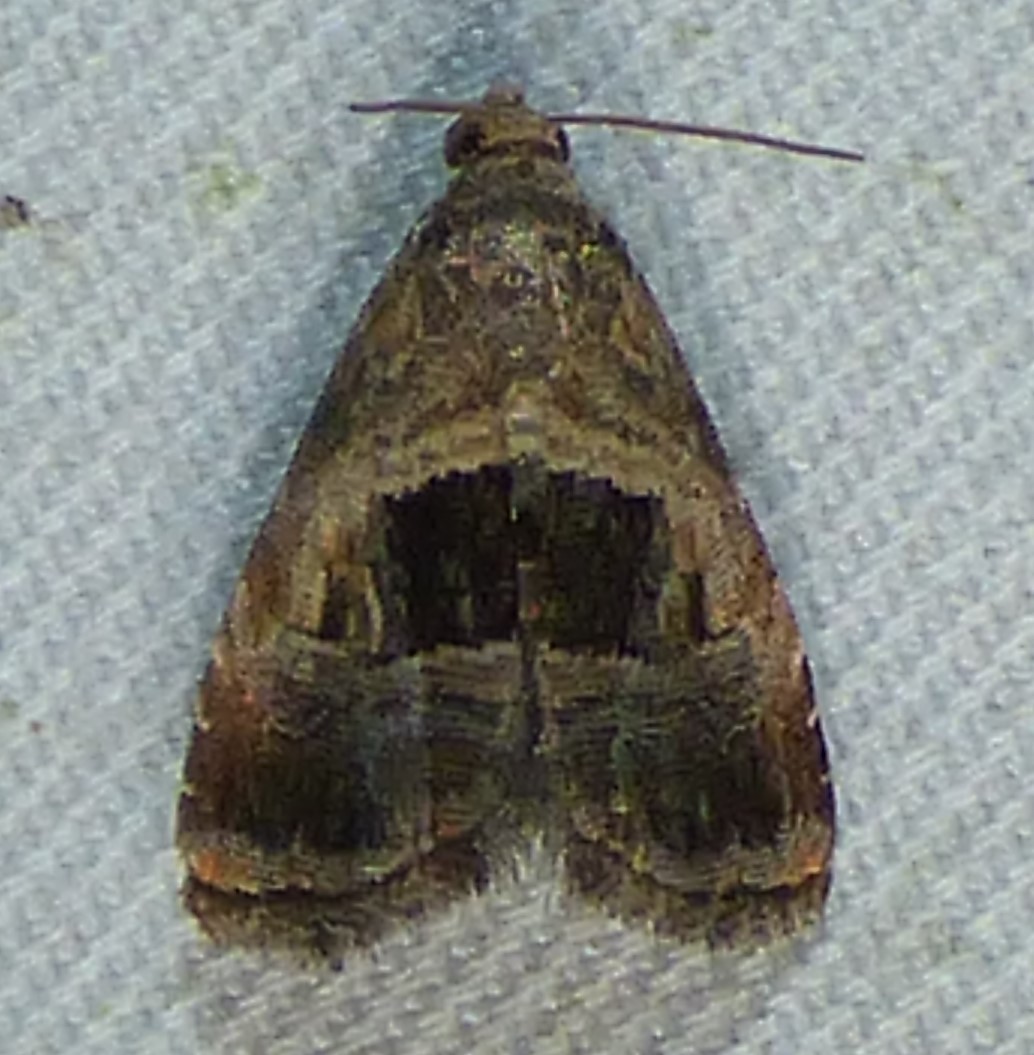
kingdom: Animalia
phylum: Arthropoda
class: Insecta
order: Lepidoptera
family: Noctuidae
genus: Tripudia
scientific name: Tripudia rectangula
